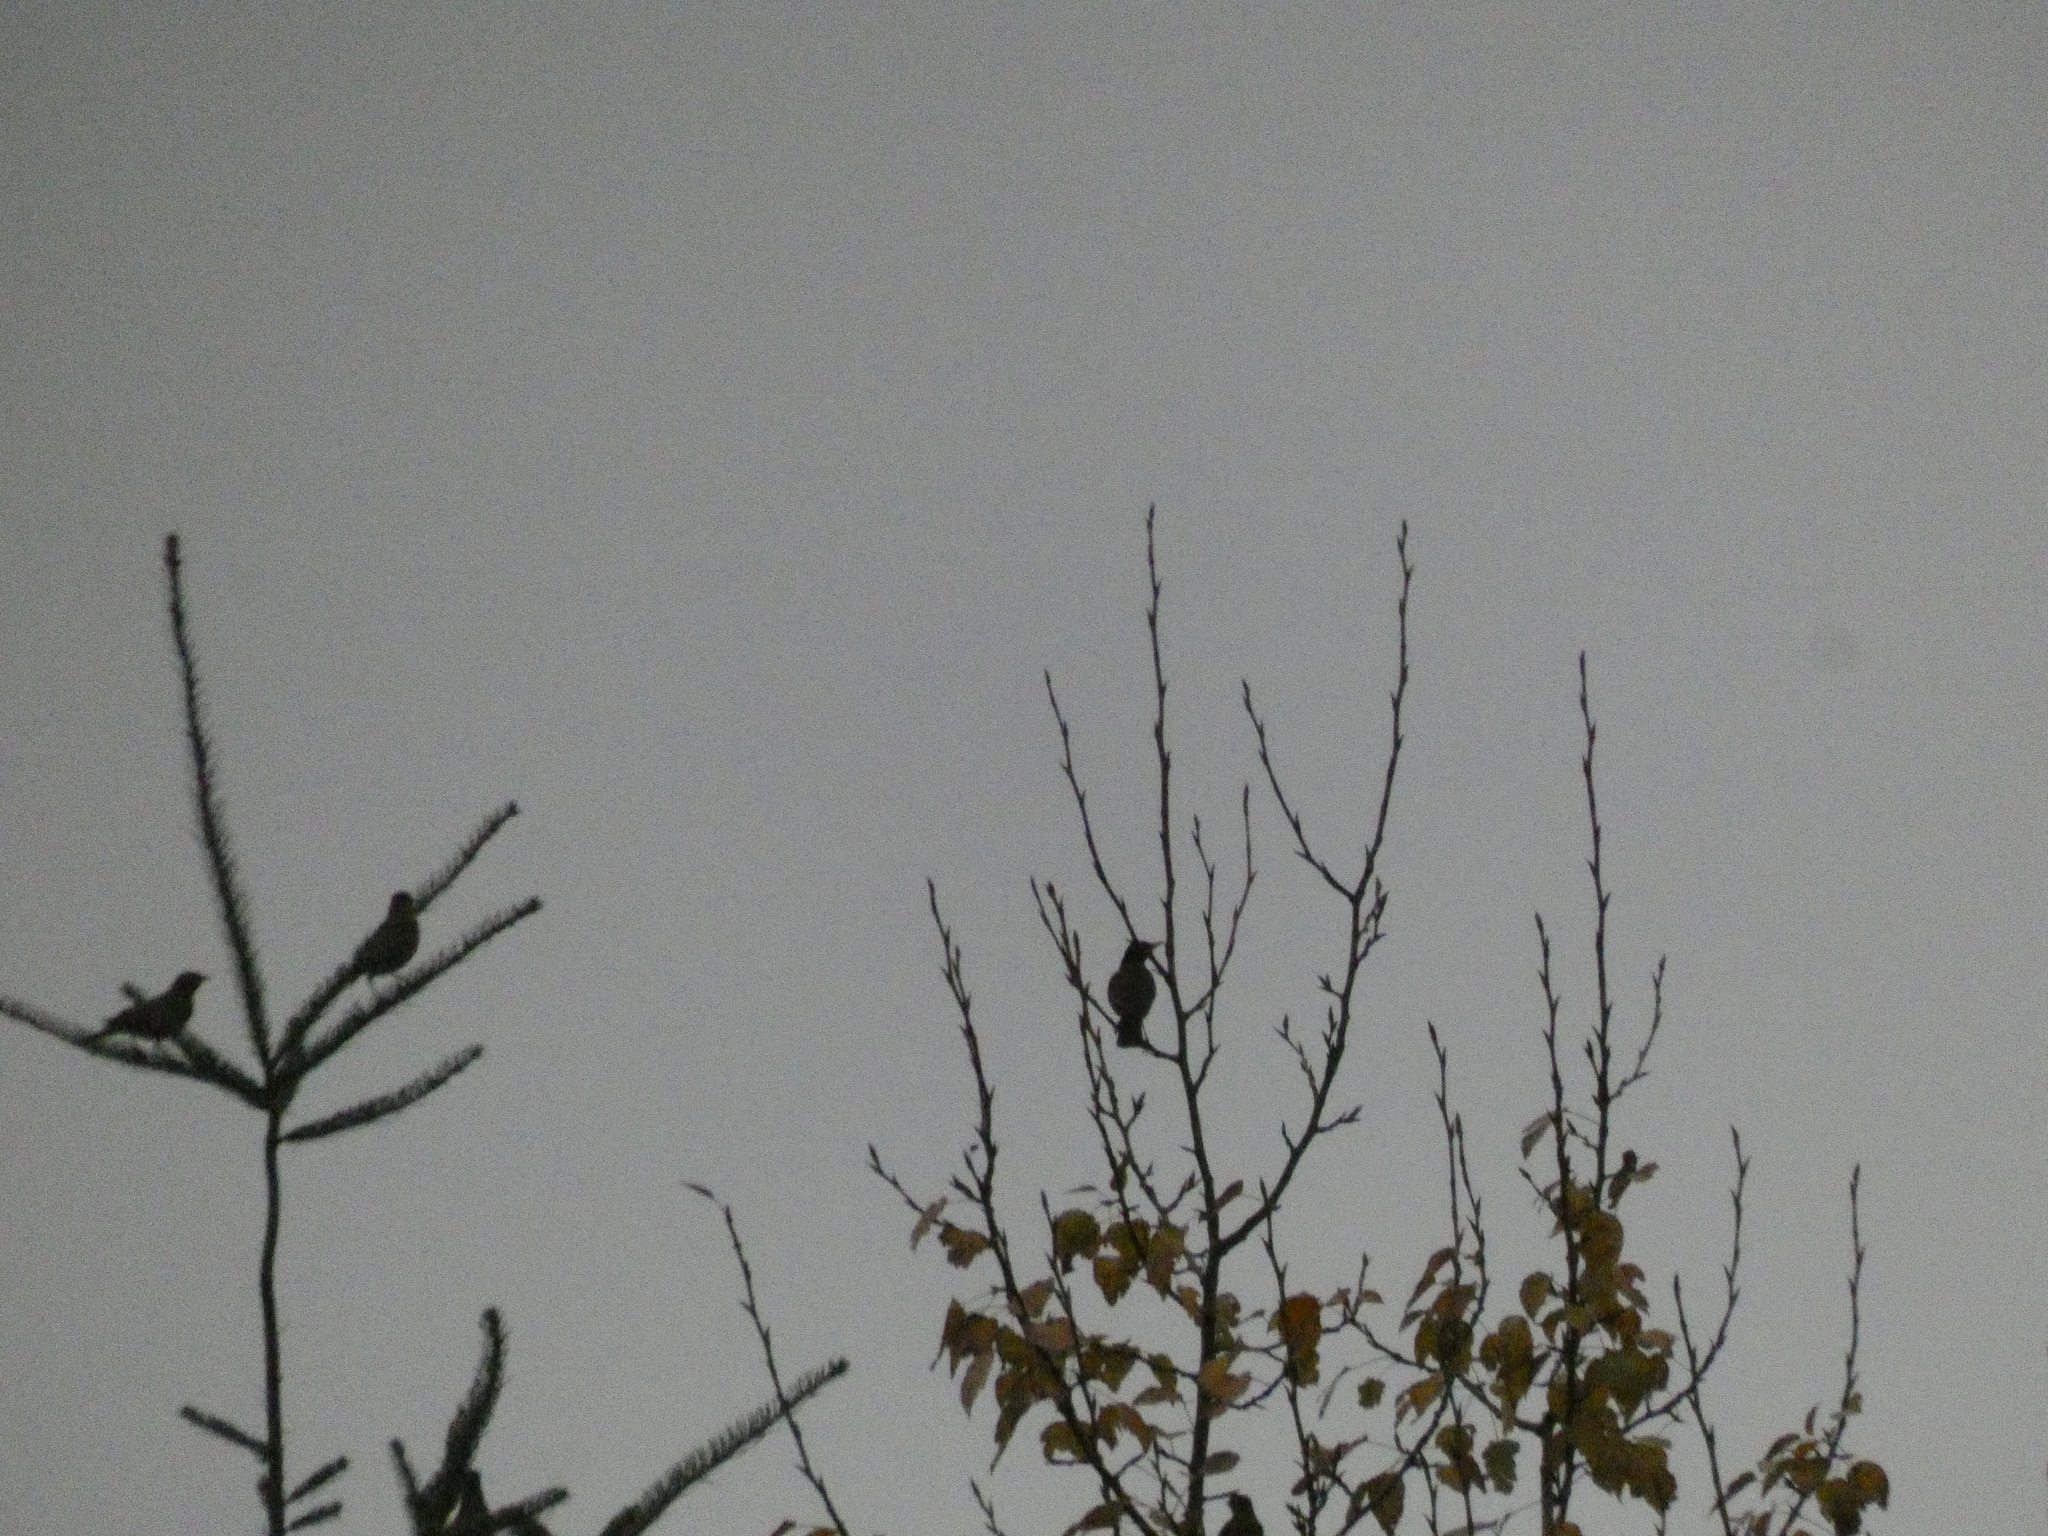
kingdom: Animalia
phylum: Chordata
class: Aves
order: Passeriformes
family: Turdidae
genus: Turdus
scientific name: Turdus migratorius
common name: American robin
